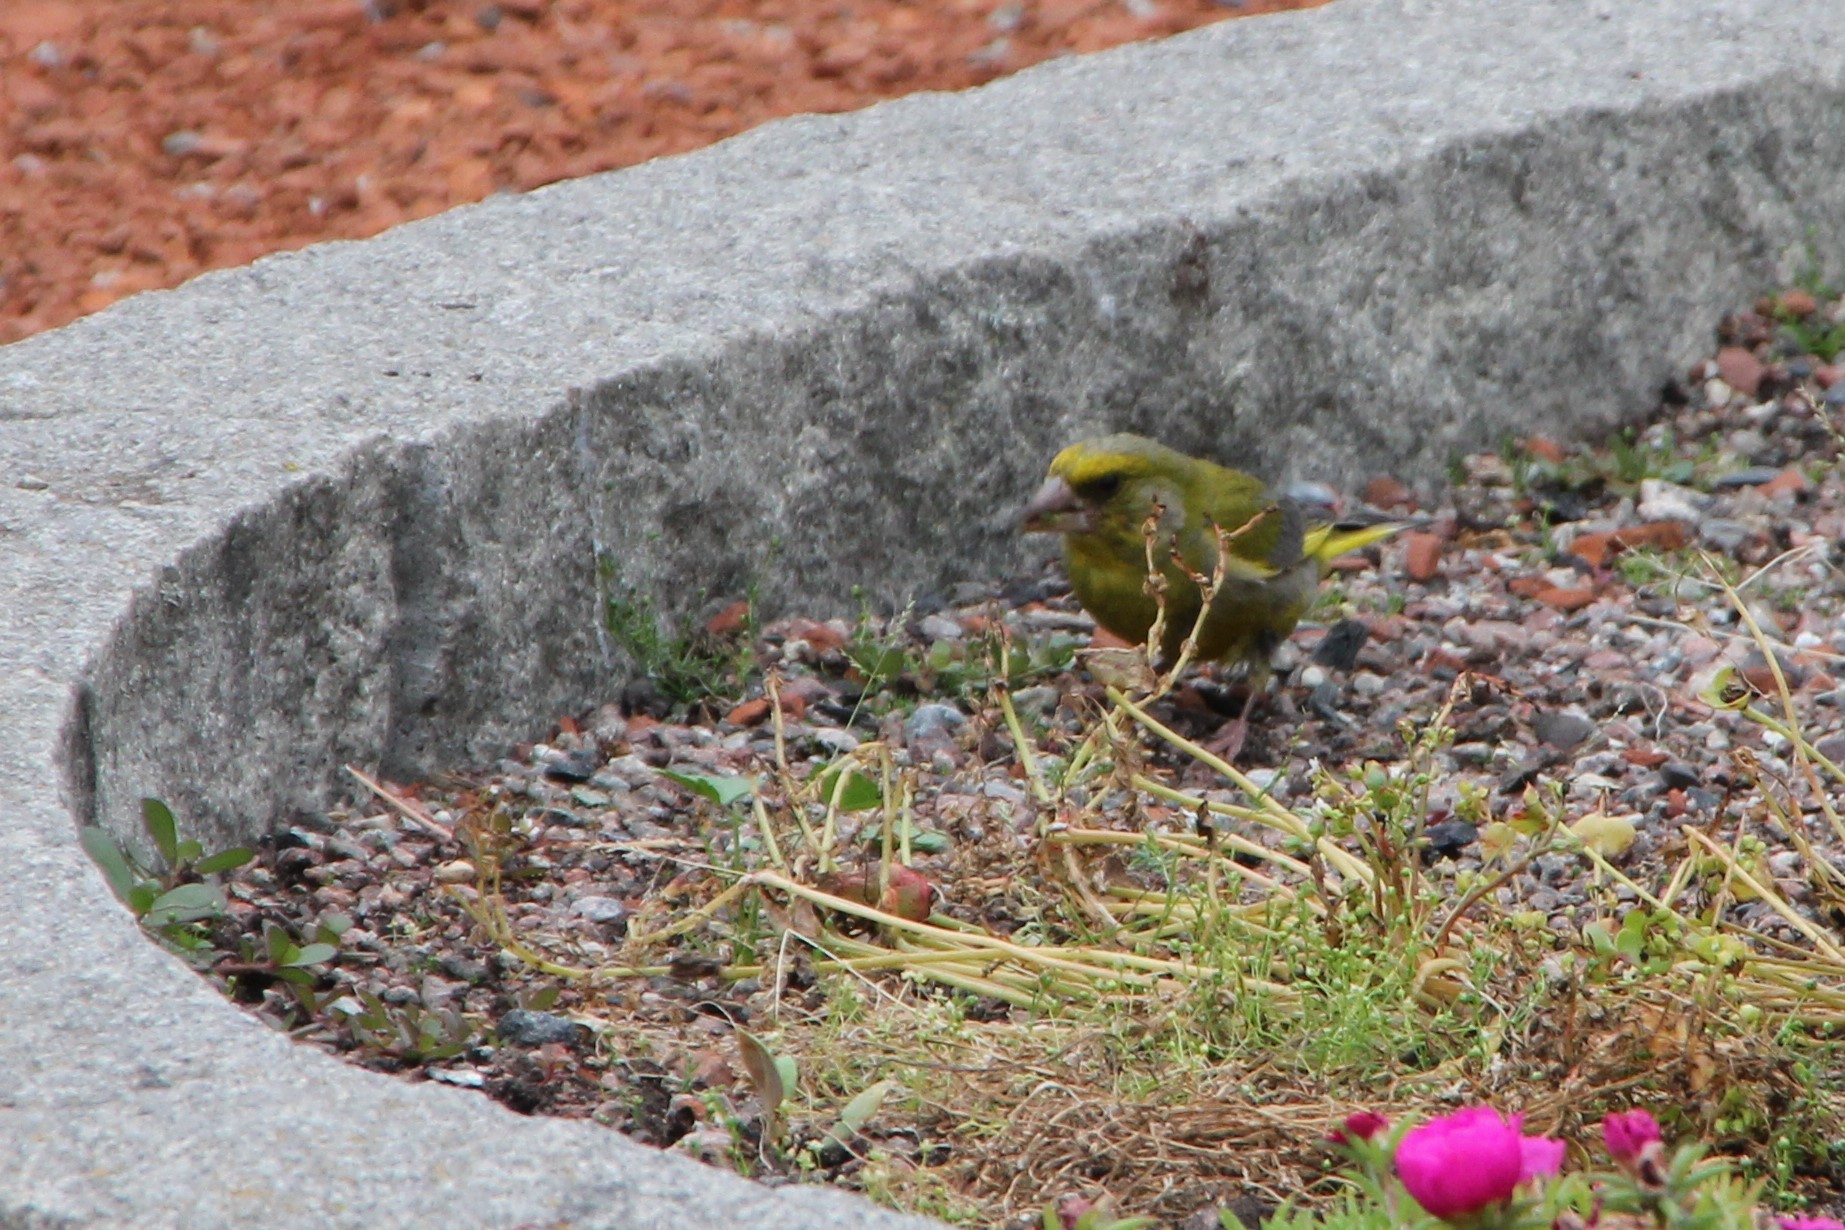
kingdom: Plantae
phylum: Tracheophyta
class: Liliopsida
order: Poales
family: Poaceae
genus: Chloris
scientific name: Chloris chloris
